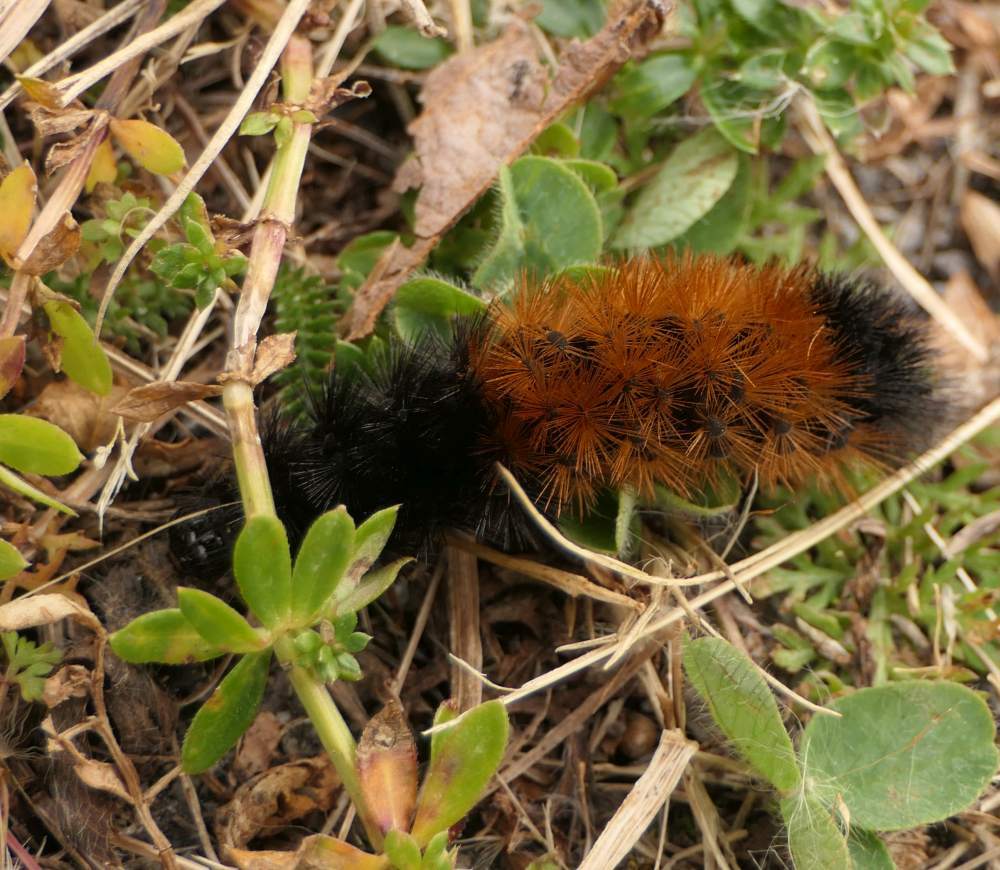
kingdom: Animalia
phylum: Arthropoda
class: Insecta
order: Lepidoptera
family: Erebidae
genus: Pyrrharctia
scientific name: Pyrrharctia isabella
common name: Isabella tiger moth
